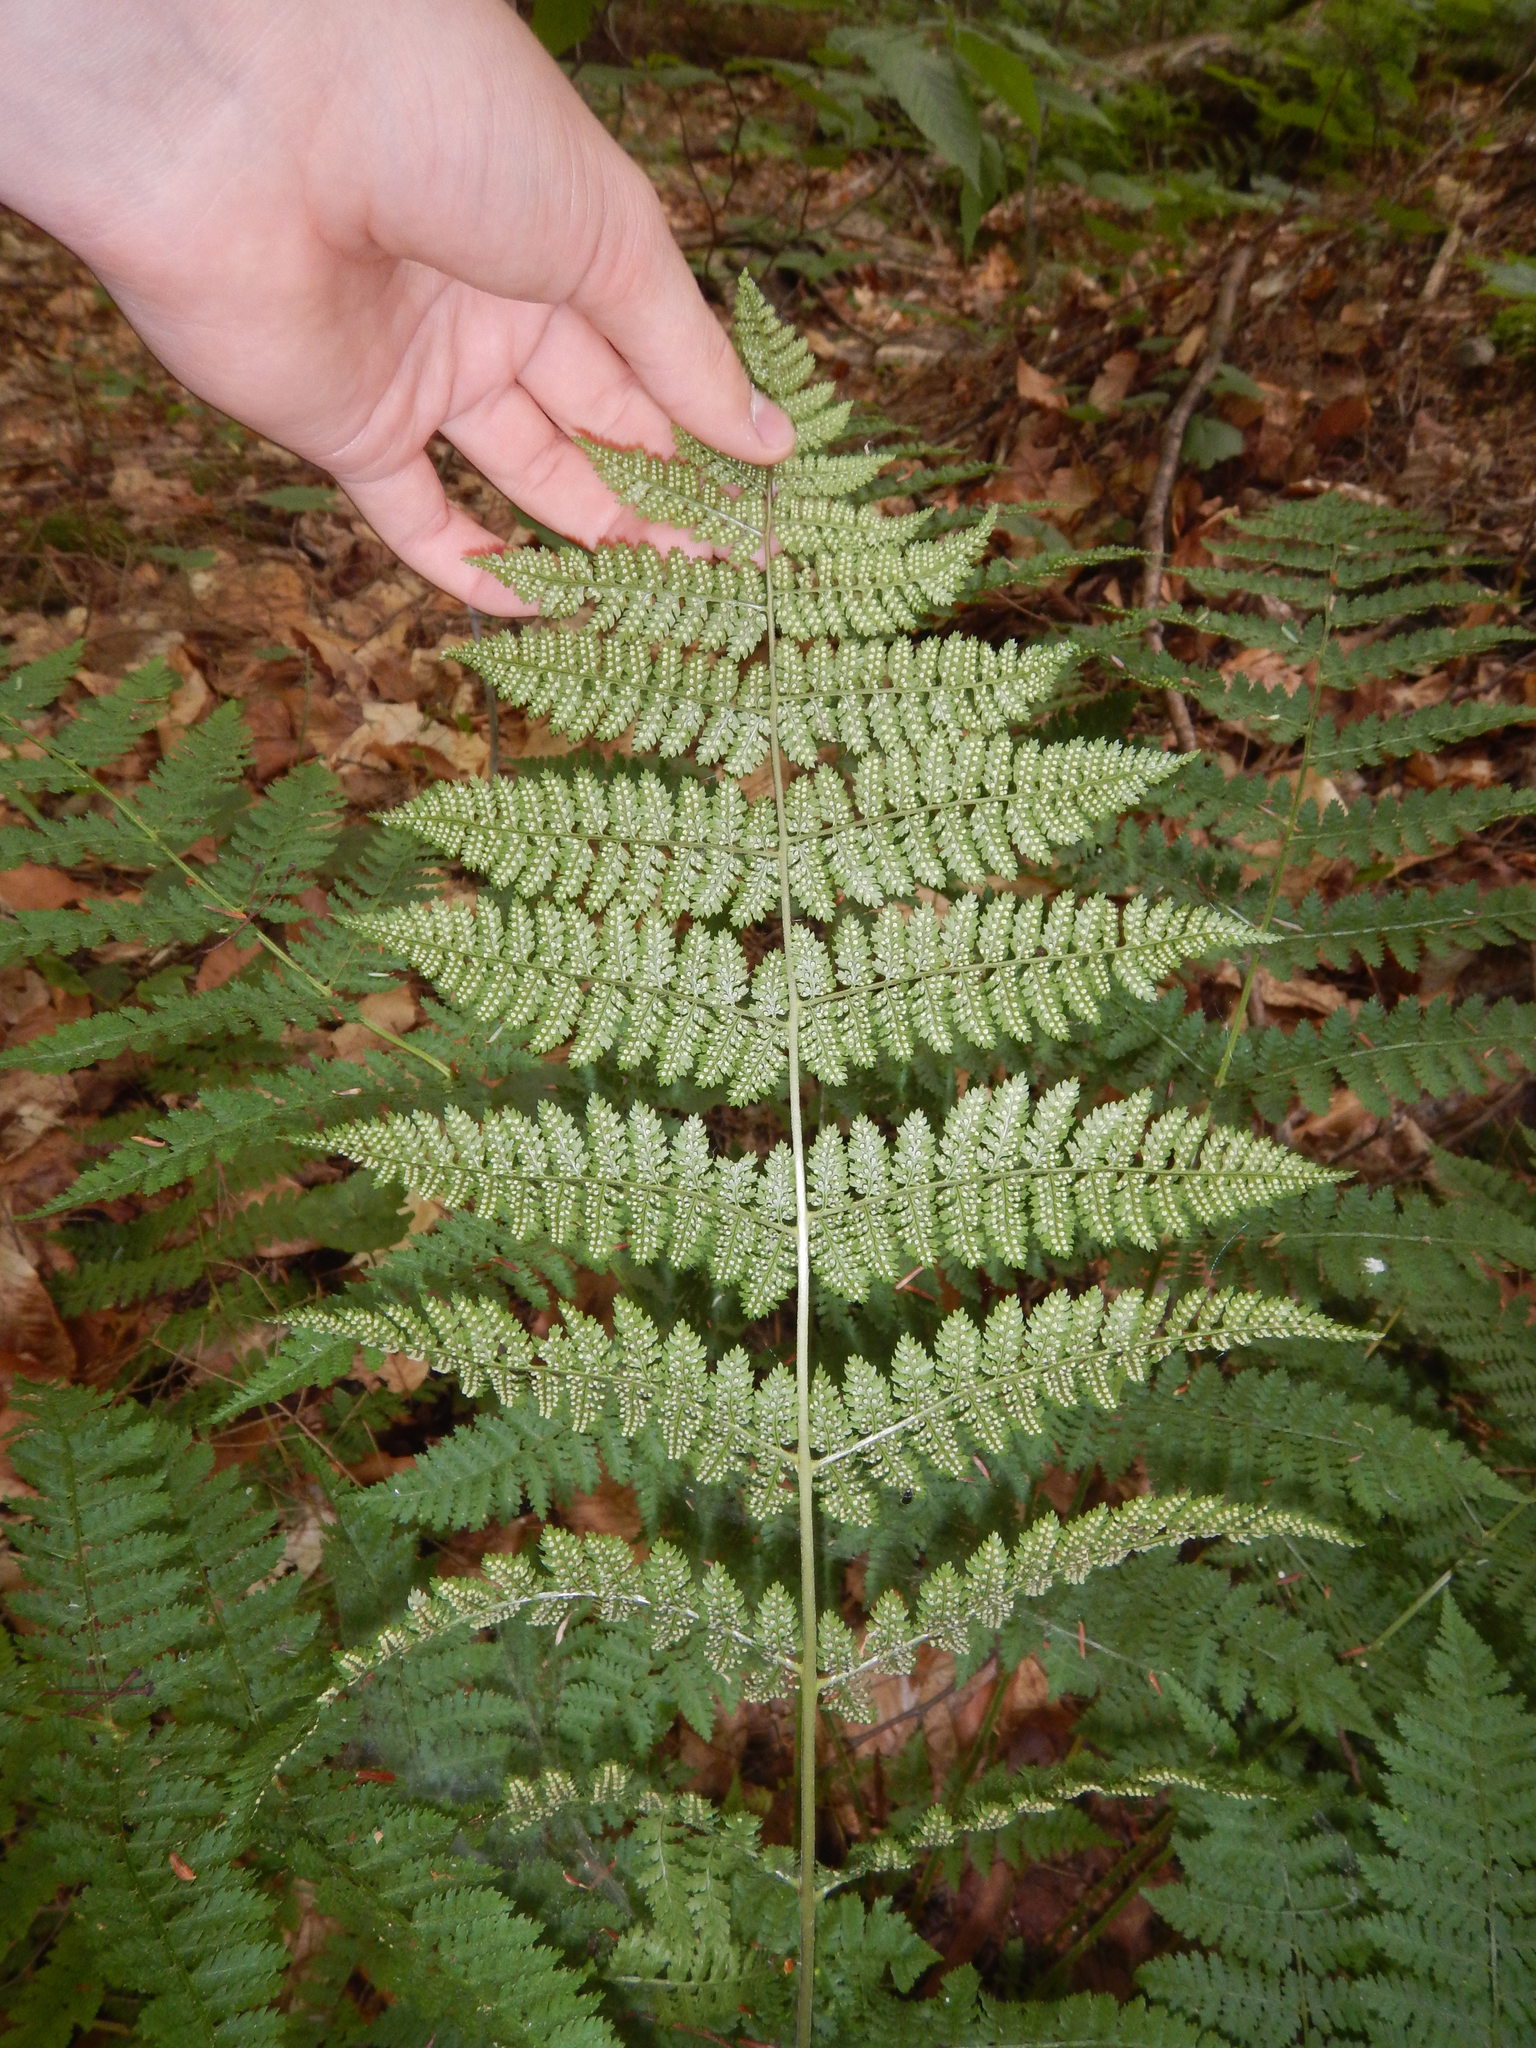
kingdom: Plantae
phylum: Tracheophyta
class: Polypodiopsida
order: Polypodiales
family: Dryopteridaceae
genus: Dryopteris
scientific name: Dryopteris intermedia
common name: Evergreen wood fern
